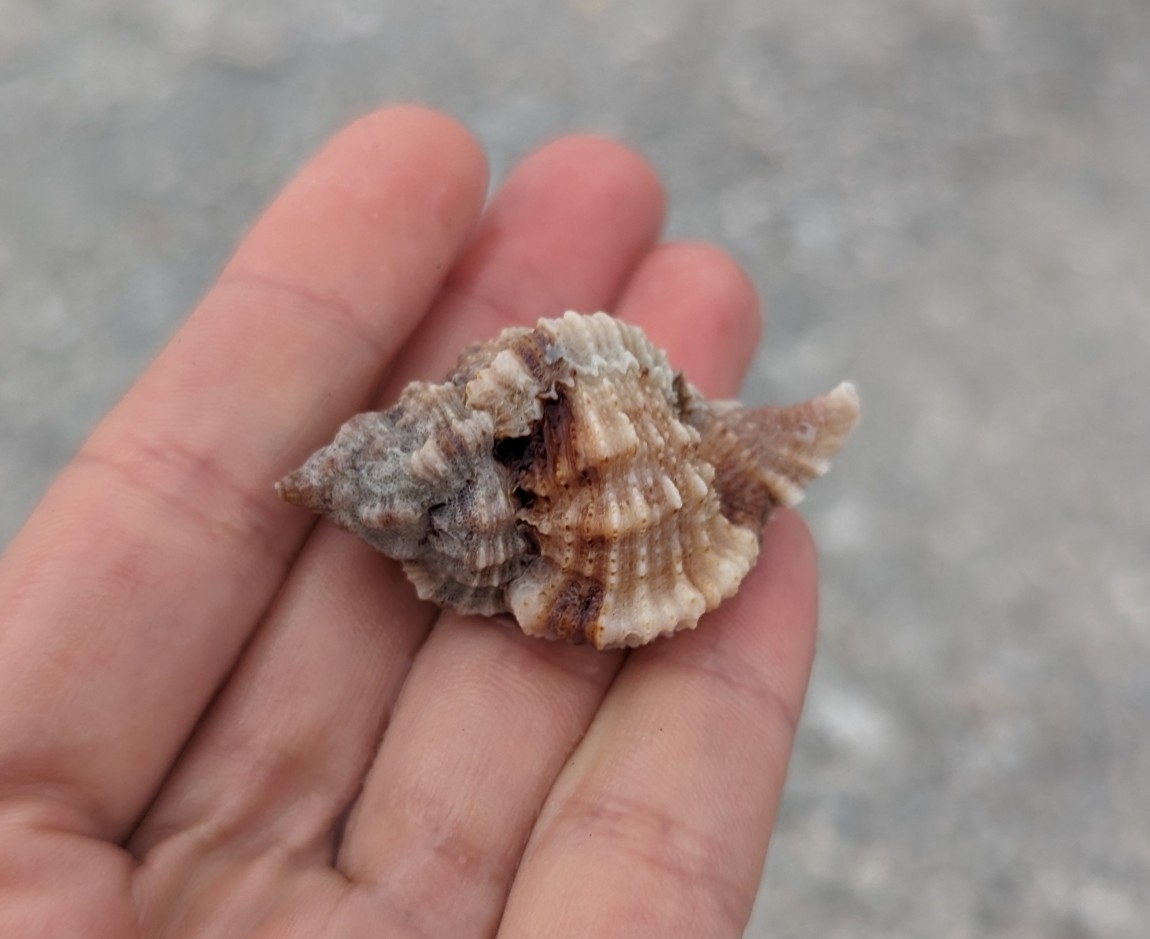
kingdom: Animalia
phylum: Mollusca
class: Gastropoda
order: Neogastropoda
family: Muricidae
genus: Phyllonotus
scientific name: Phyllonotus pomum
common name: Apple murex
